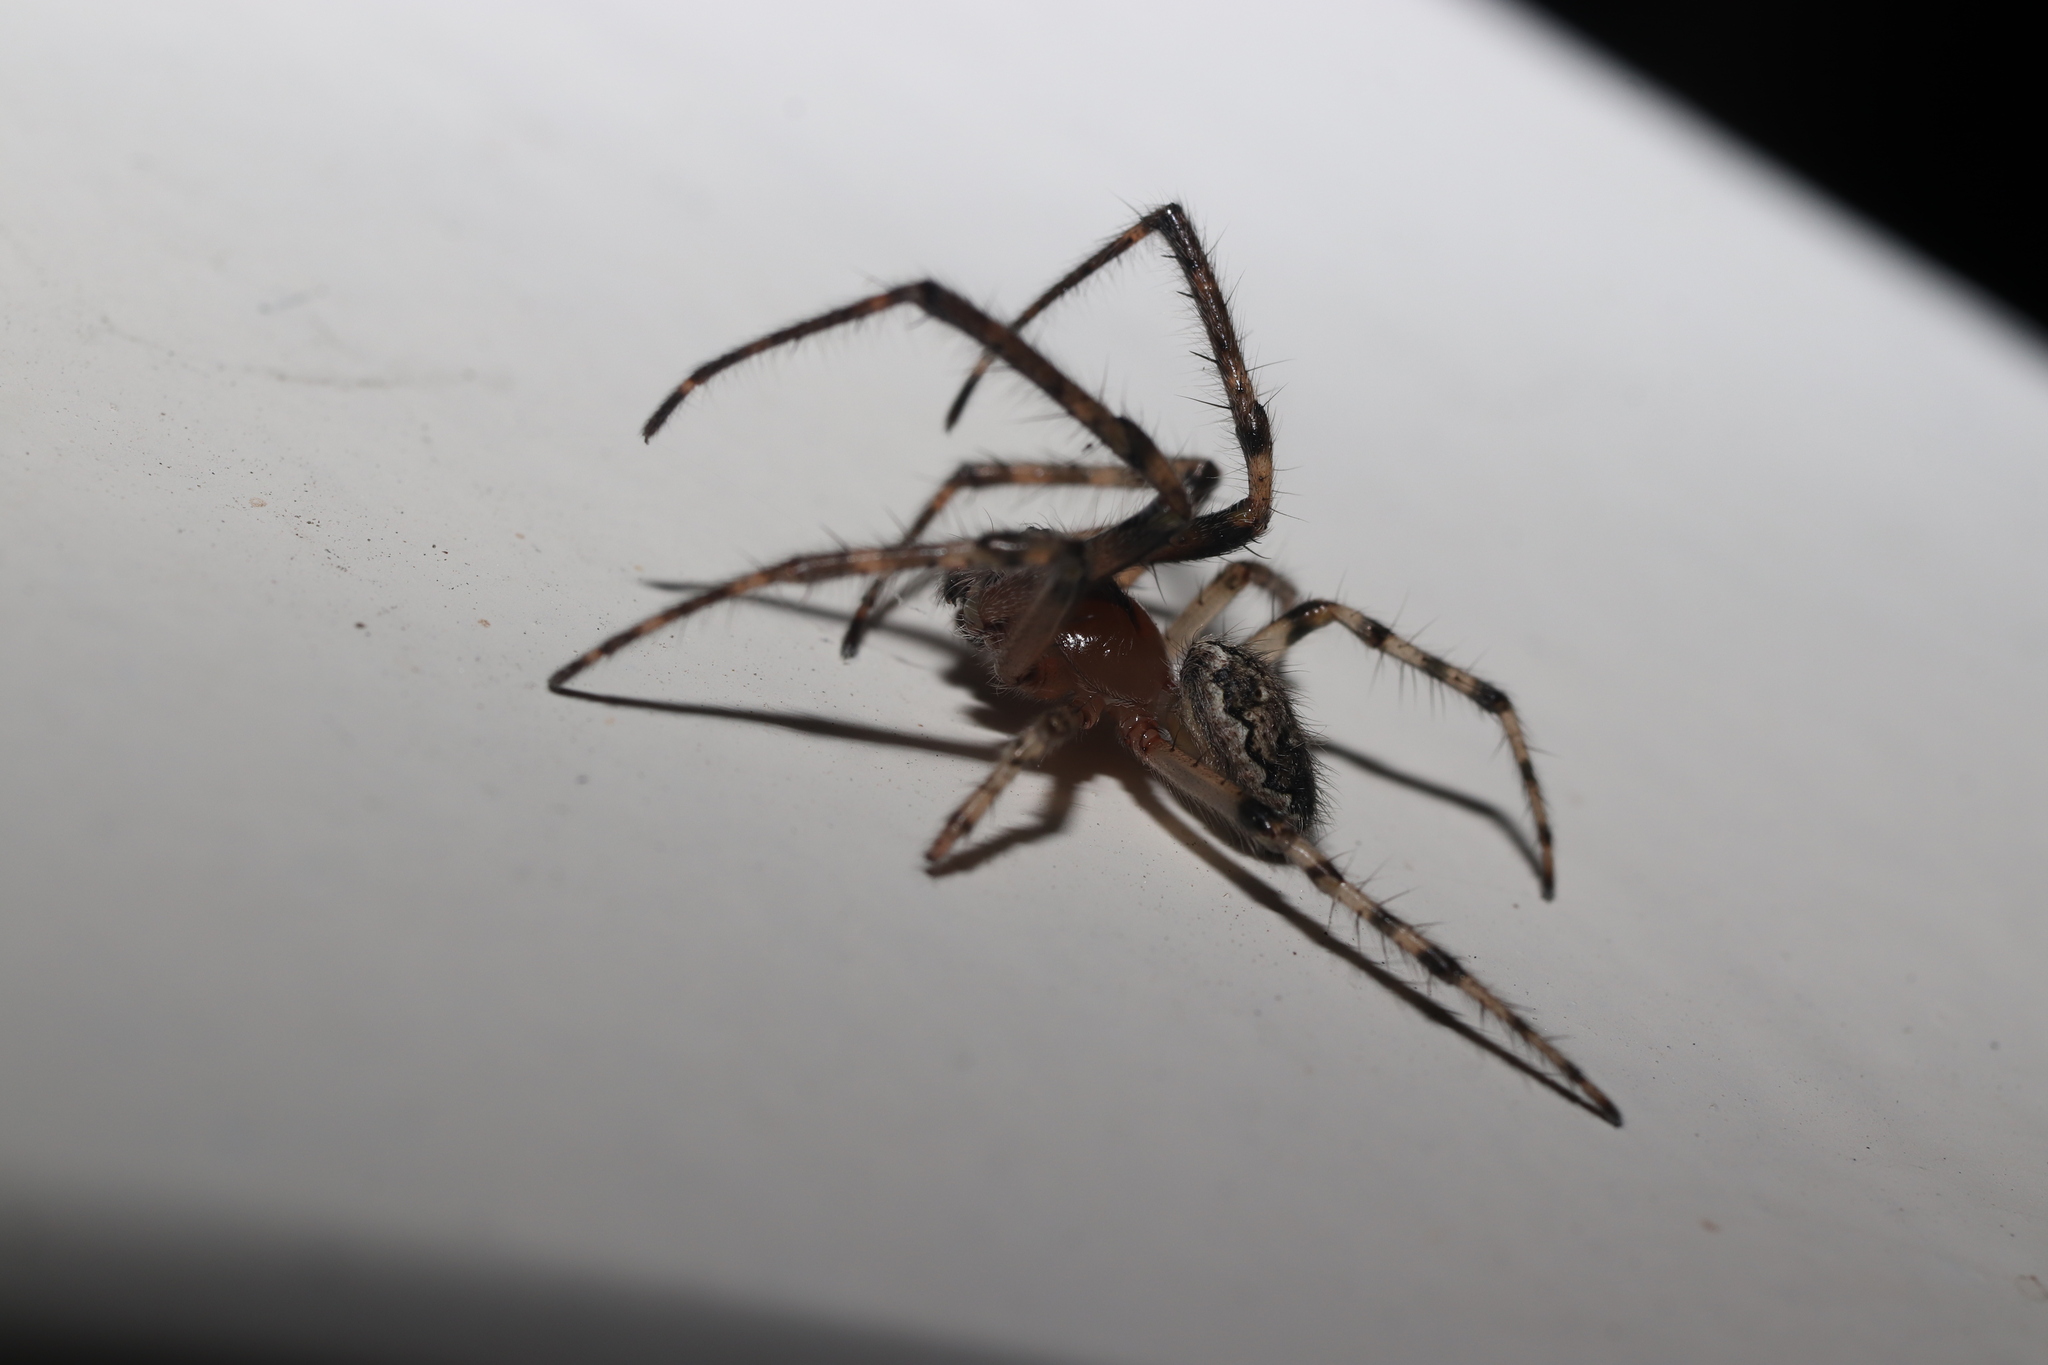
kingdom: Animalia
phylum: Arthropoda
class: Arachnida
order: Araneae
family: Araneidae
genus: Yaginumia
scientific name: Yaginumia sia
